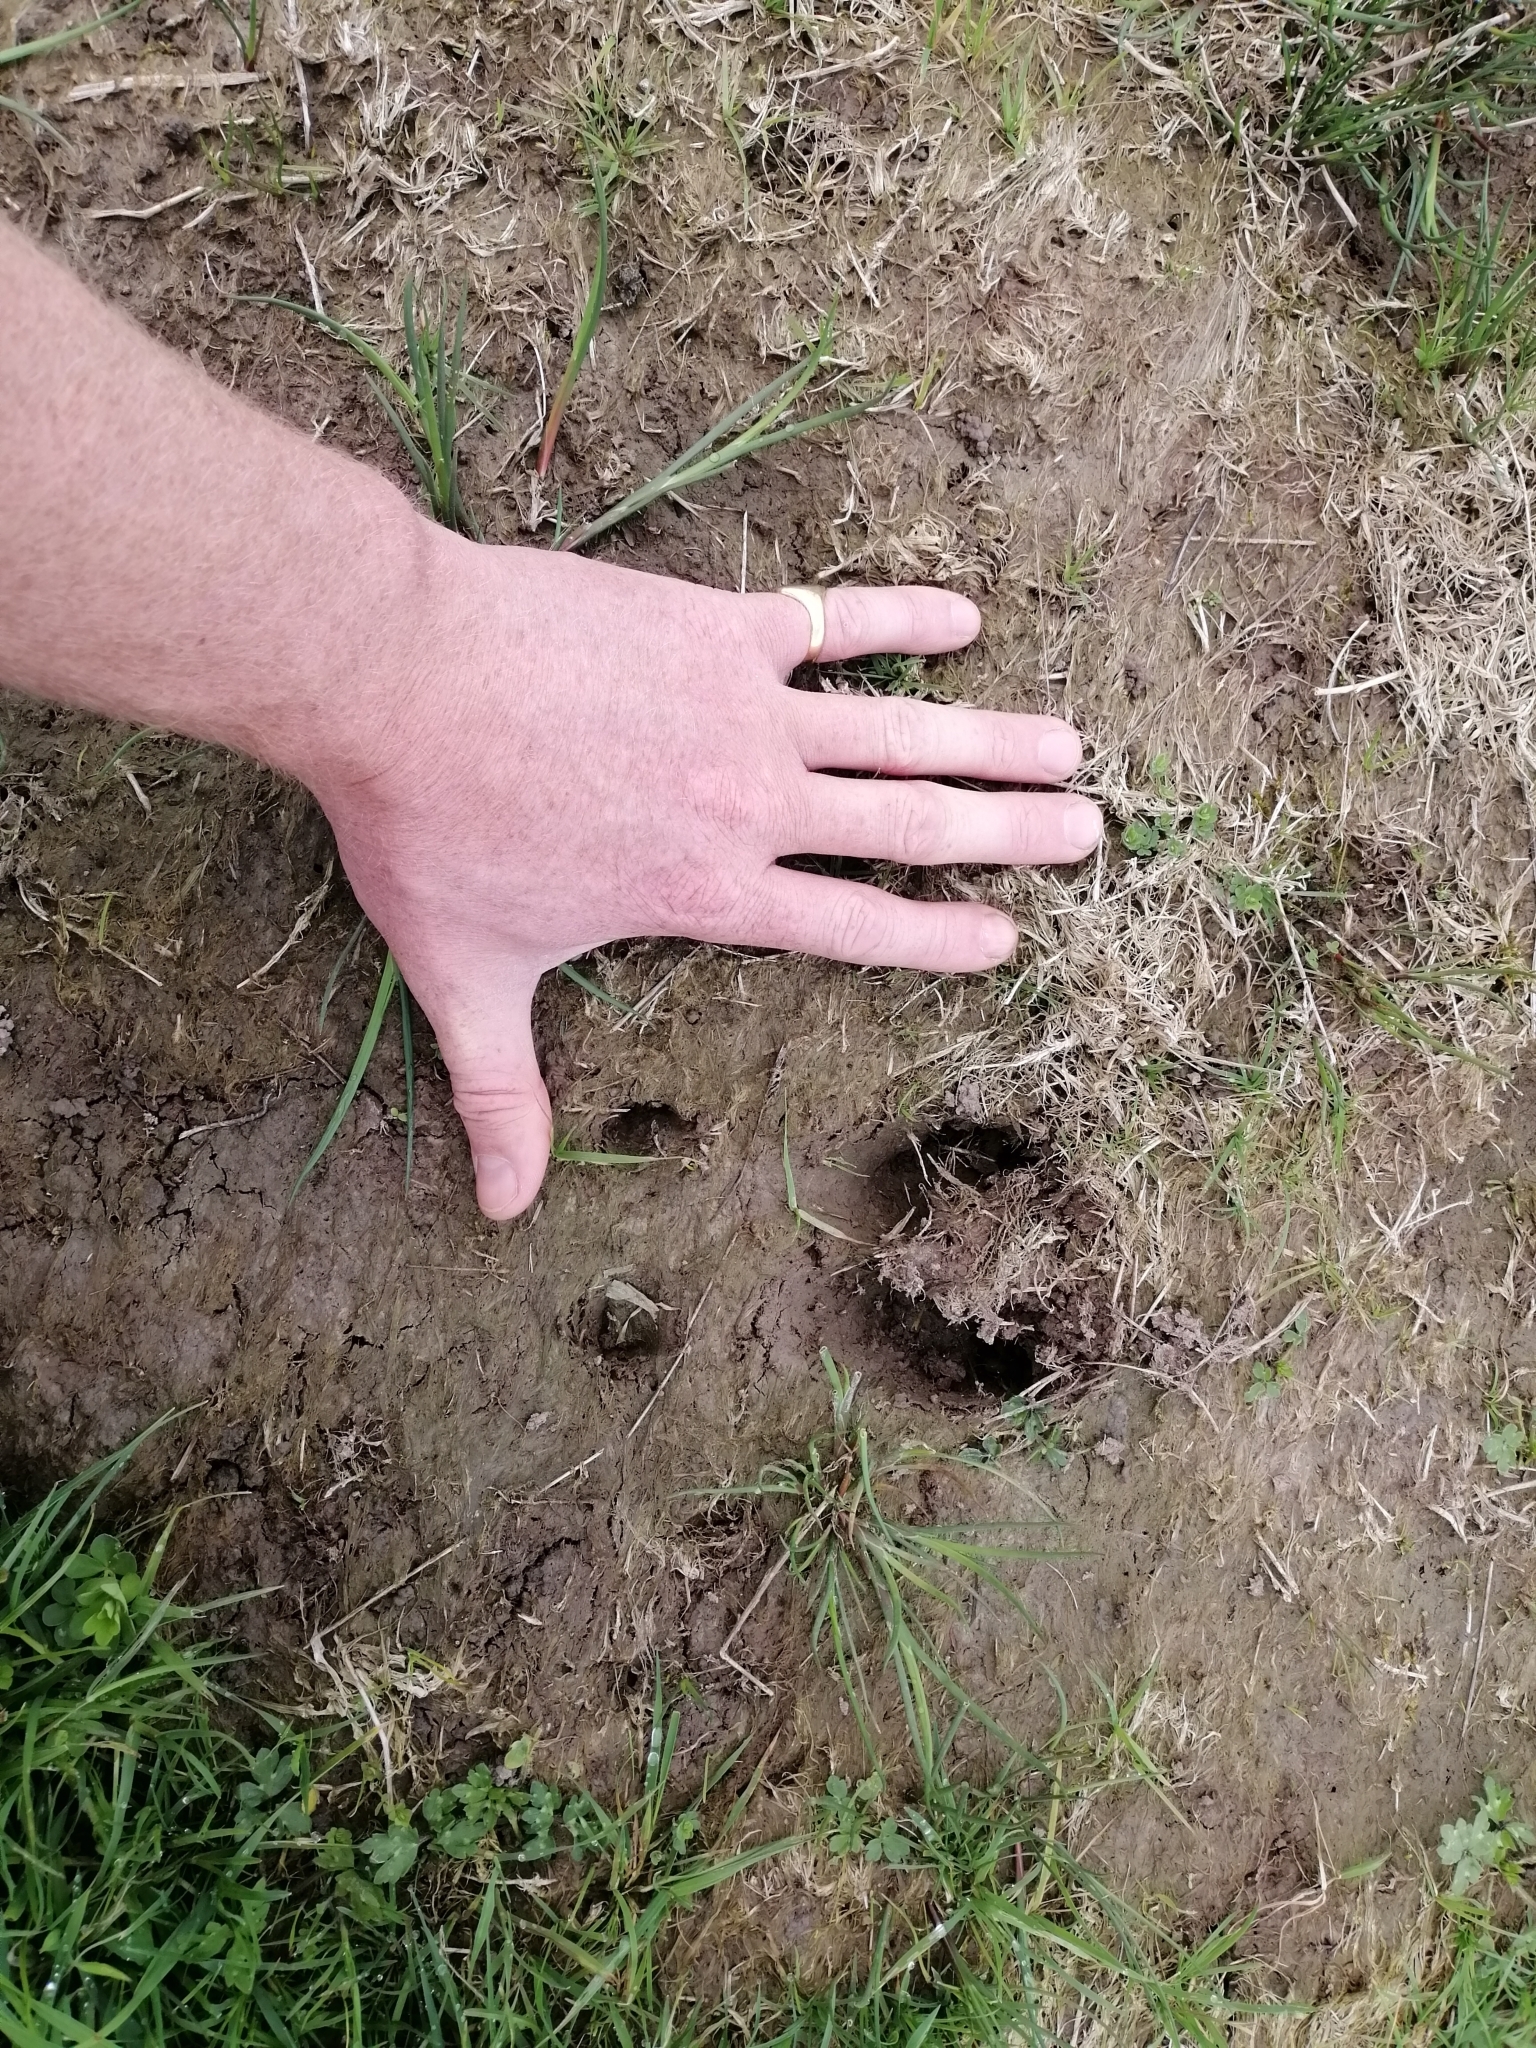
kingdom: Animalia
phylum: Chordata
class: Mammalia
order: Artiodactyla
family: Suidae
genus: Sus
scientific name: Sus scrofa
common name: Wild boar
